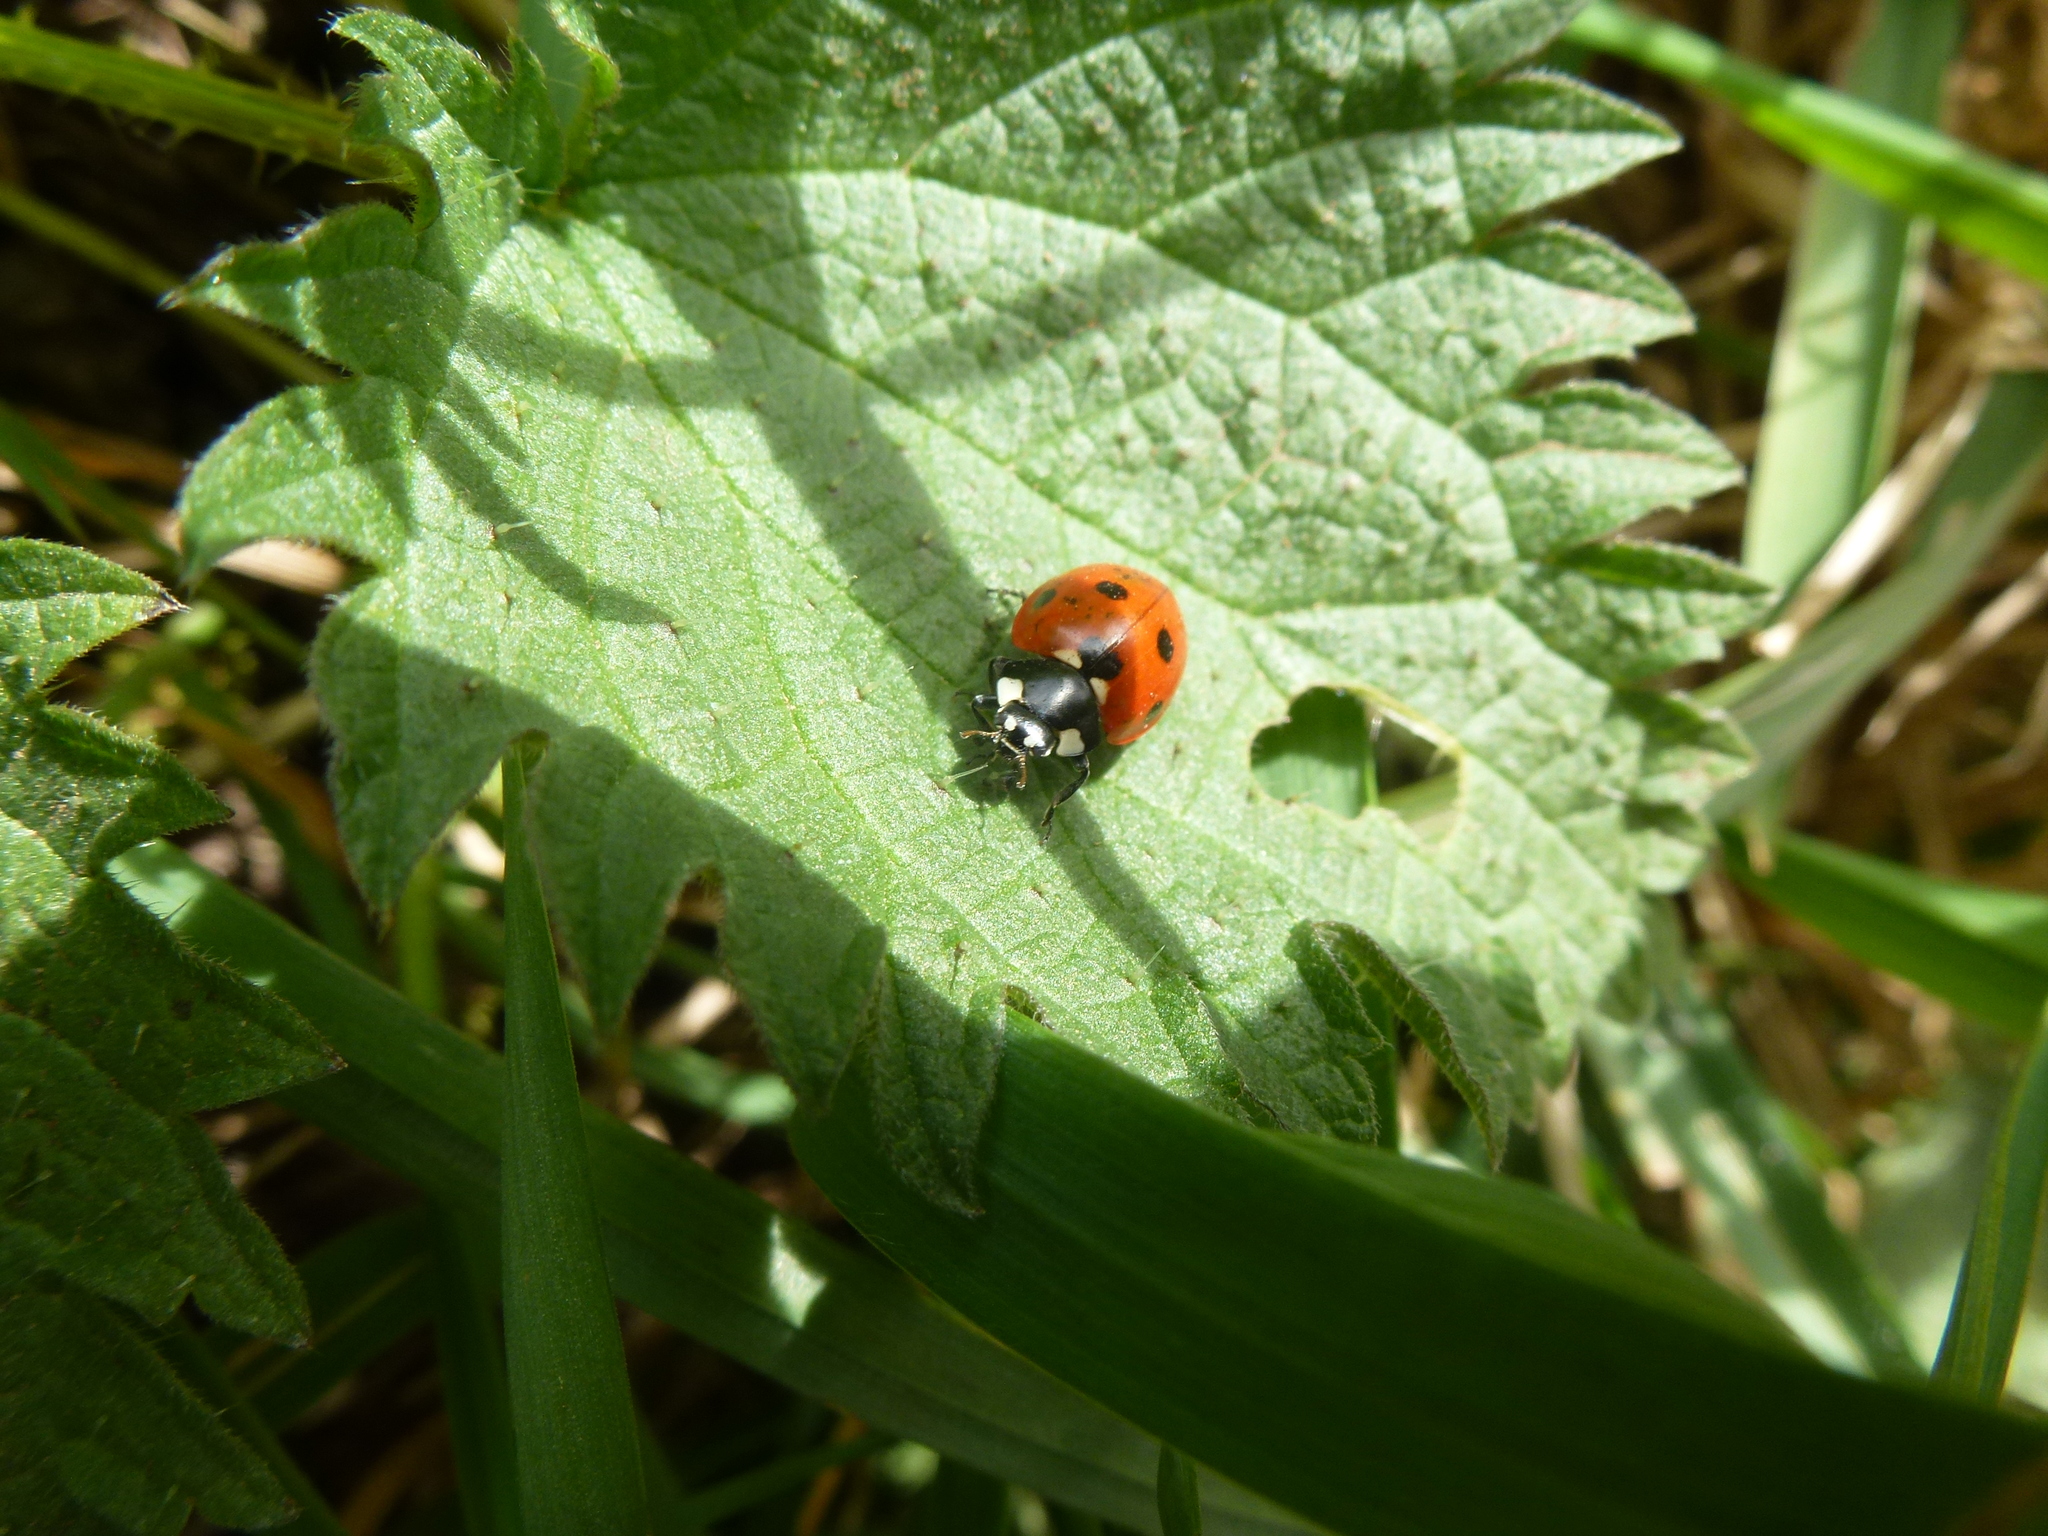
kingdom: Animalia
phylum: Arthropoda
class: Insecta
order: Coleoptera
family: Coccinellidae
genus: Coccinella
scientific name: Coccinella septempunctata
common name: Sevenspotted lady beetle
